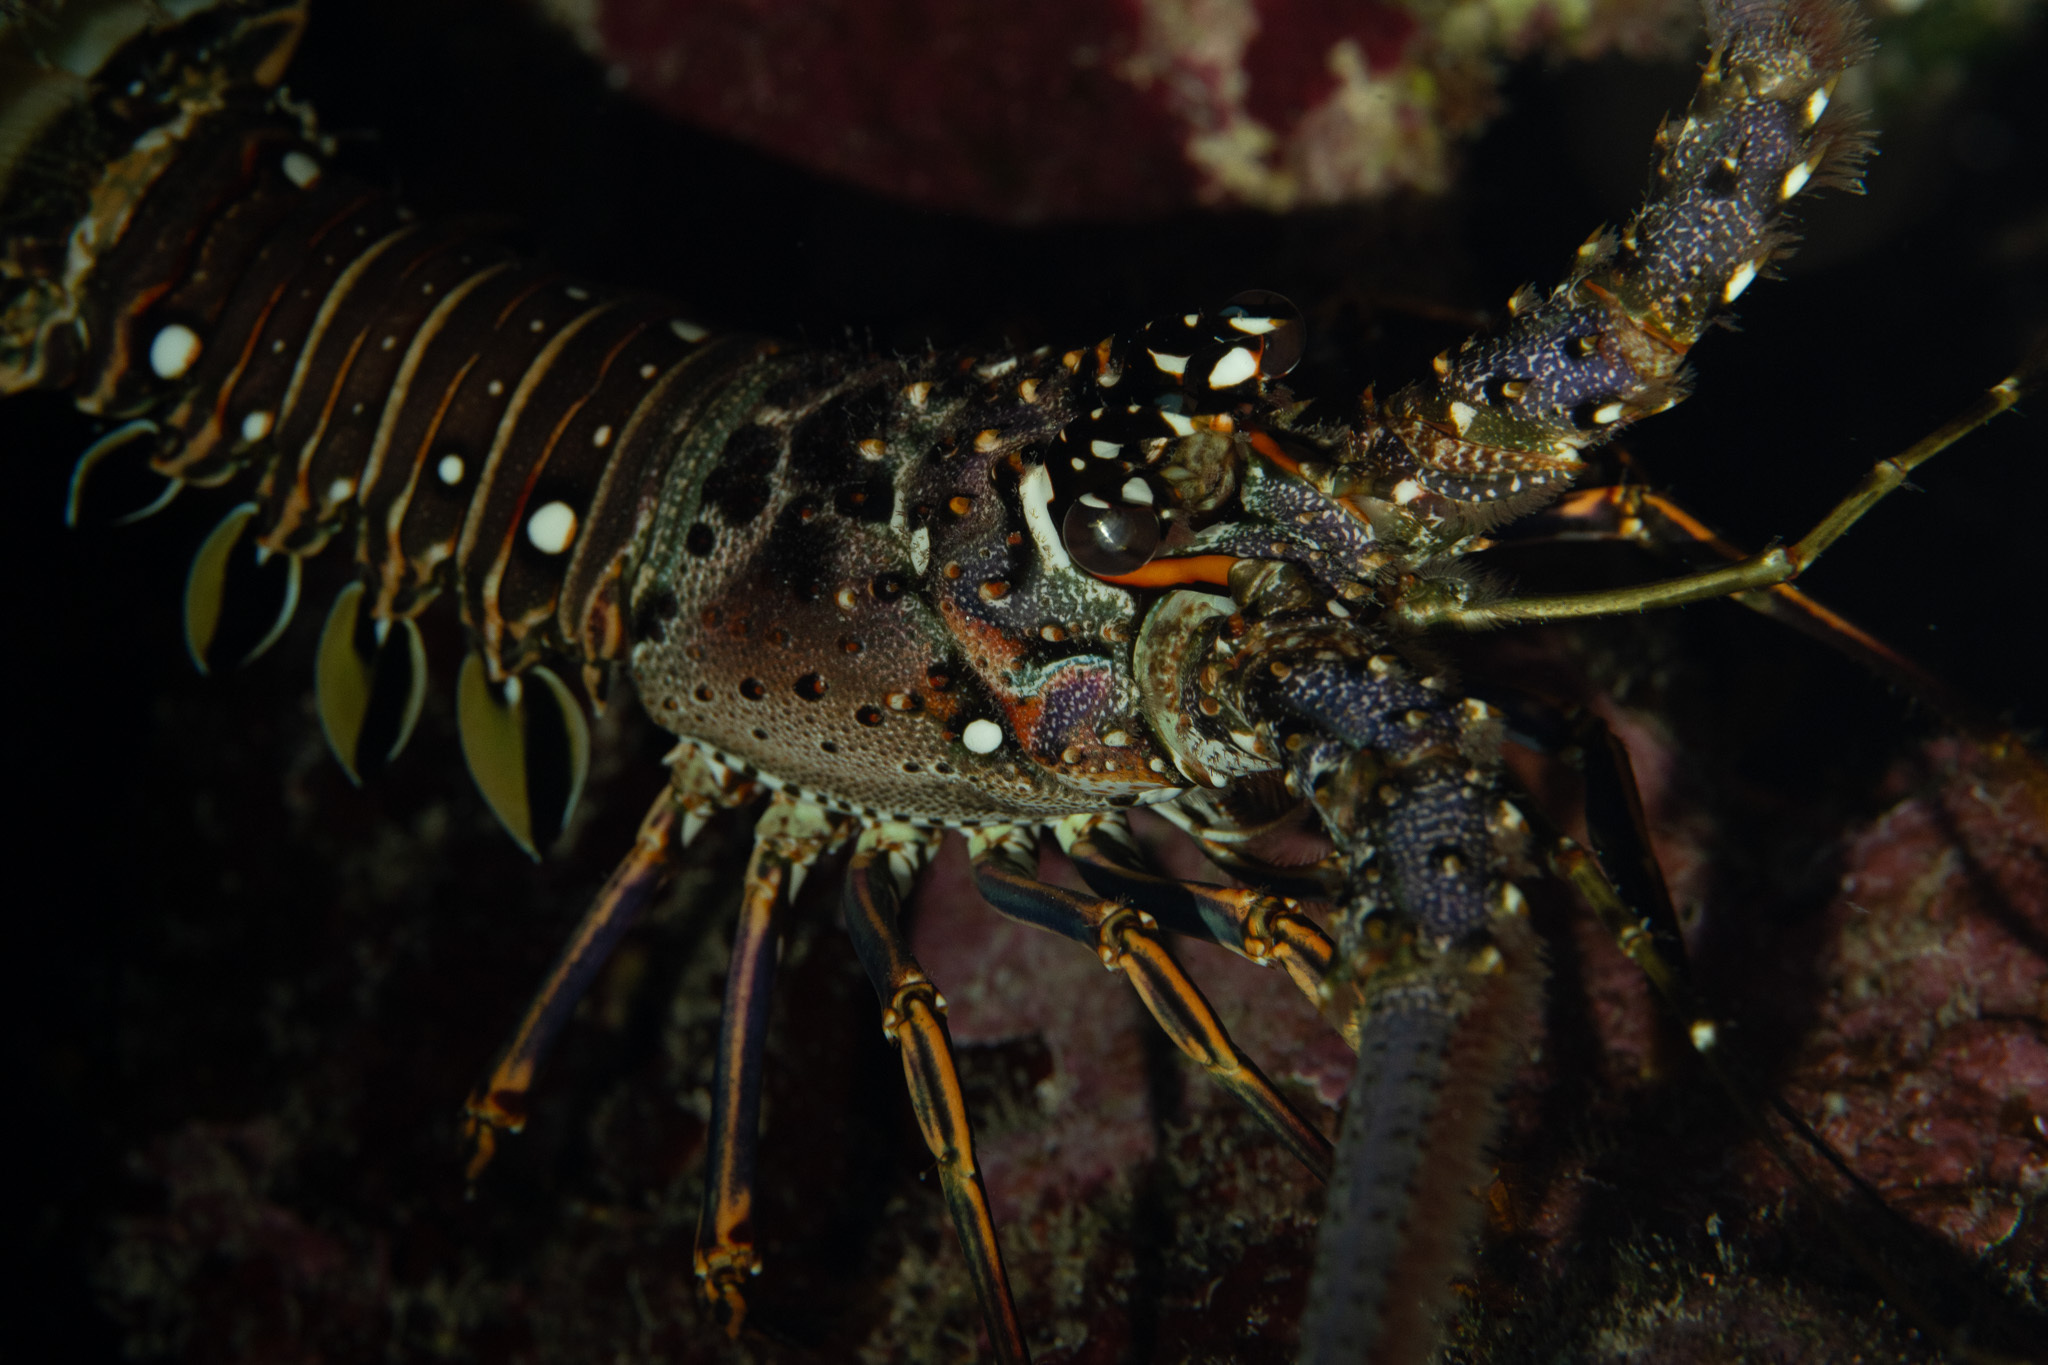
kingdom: Animalia
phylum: Arthropoda
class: Malacostraca
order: Decapoda
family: Palinuridae
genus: Panulirus
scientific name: Panulirus argus
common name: Caribbean spiny lobster
